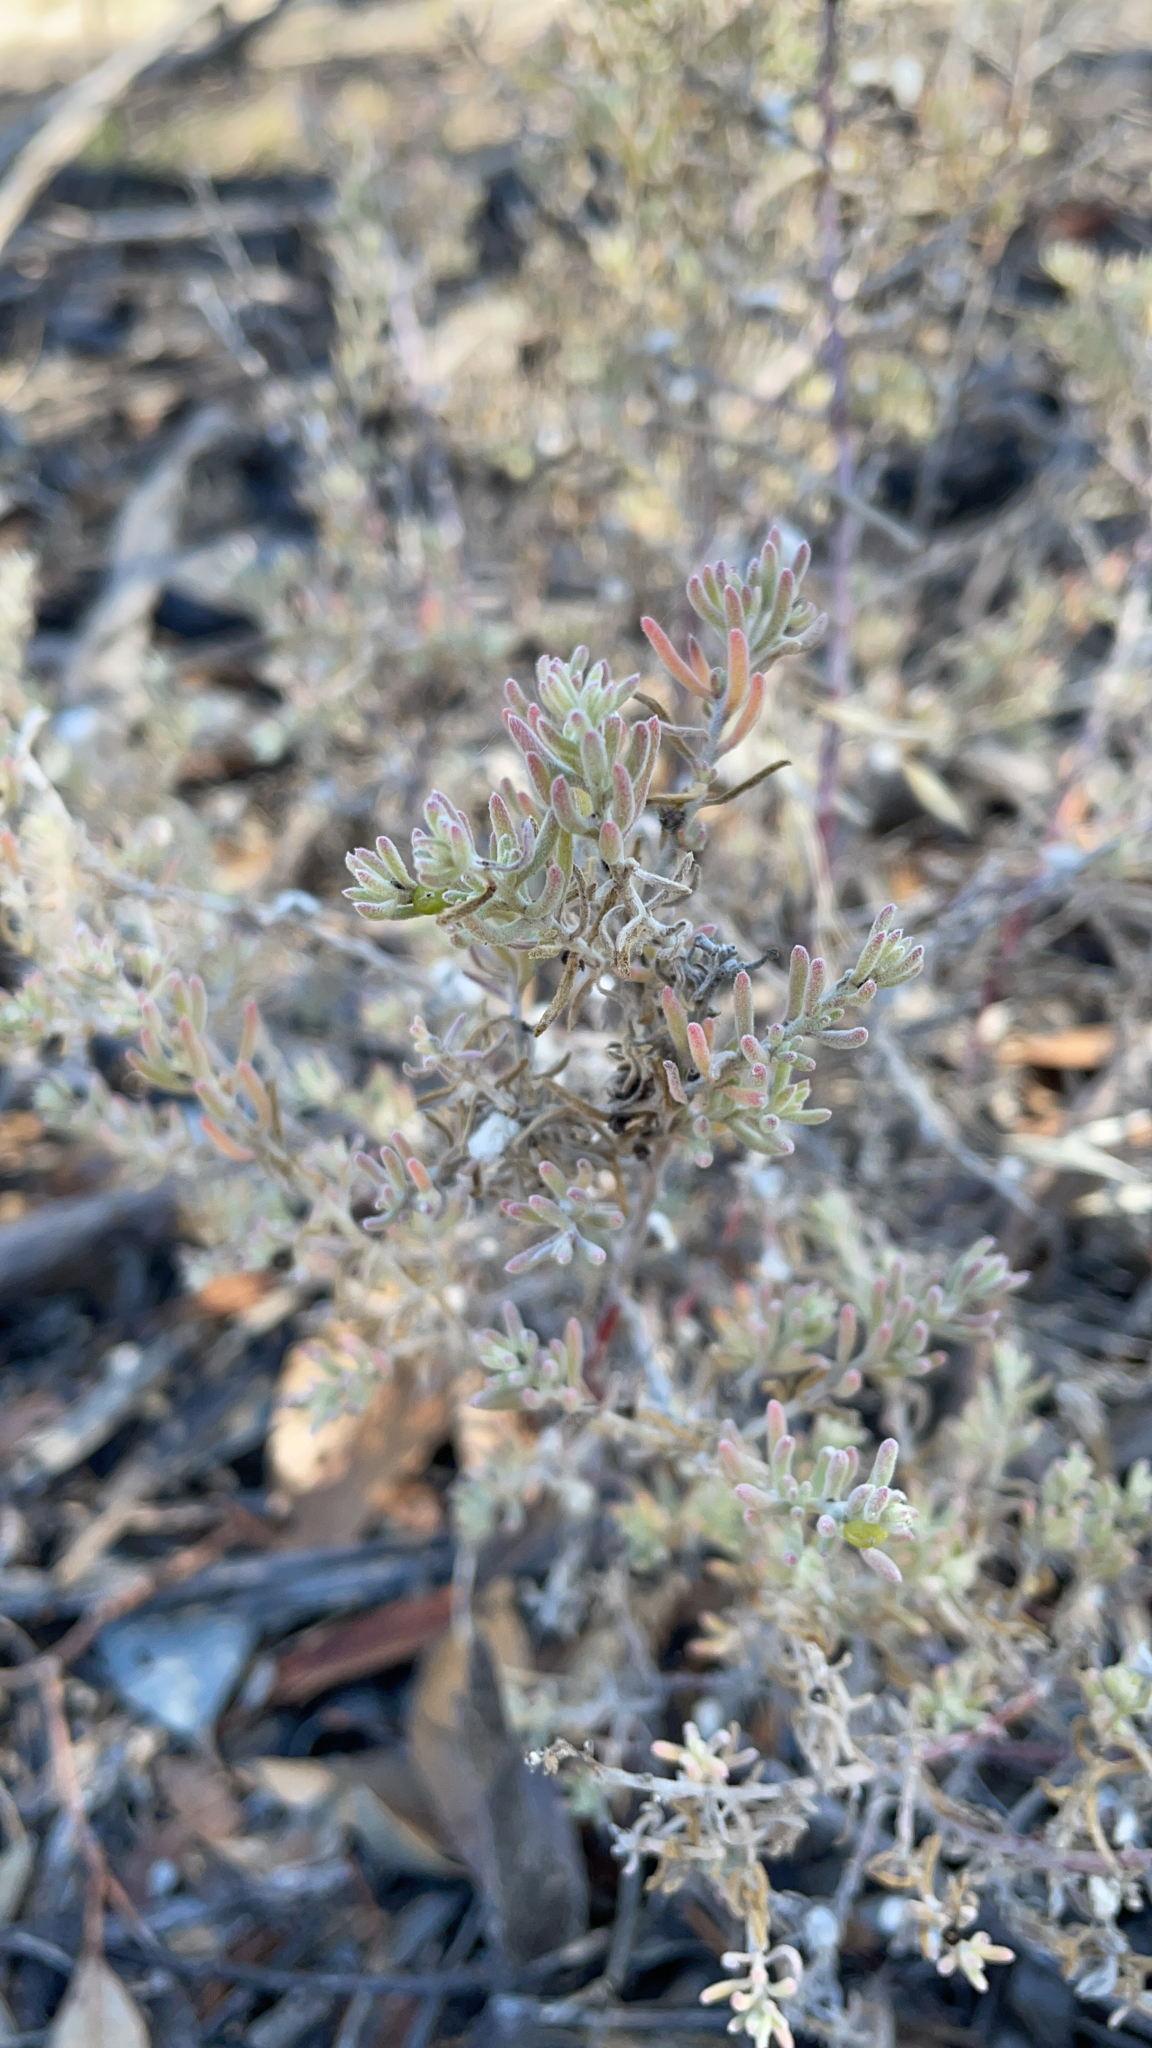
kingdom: Plantae
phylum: Tracheophyta
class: Magnoliopsida
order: Caryophyllales
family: Amaranthaceae
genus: Enchylaena
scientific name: Enchylaena tomentosa
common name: Ruby saltbush
